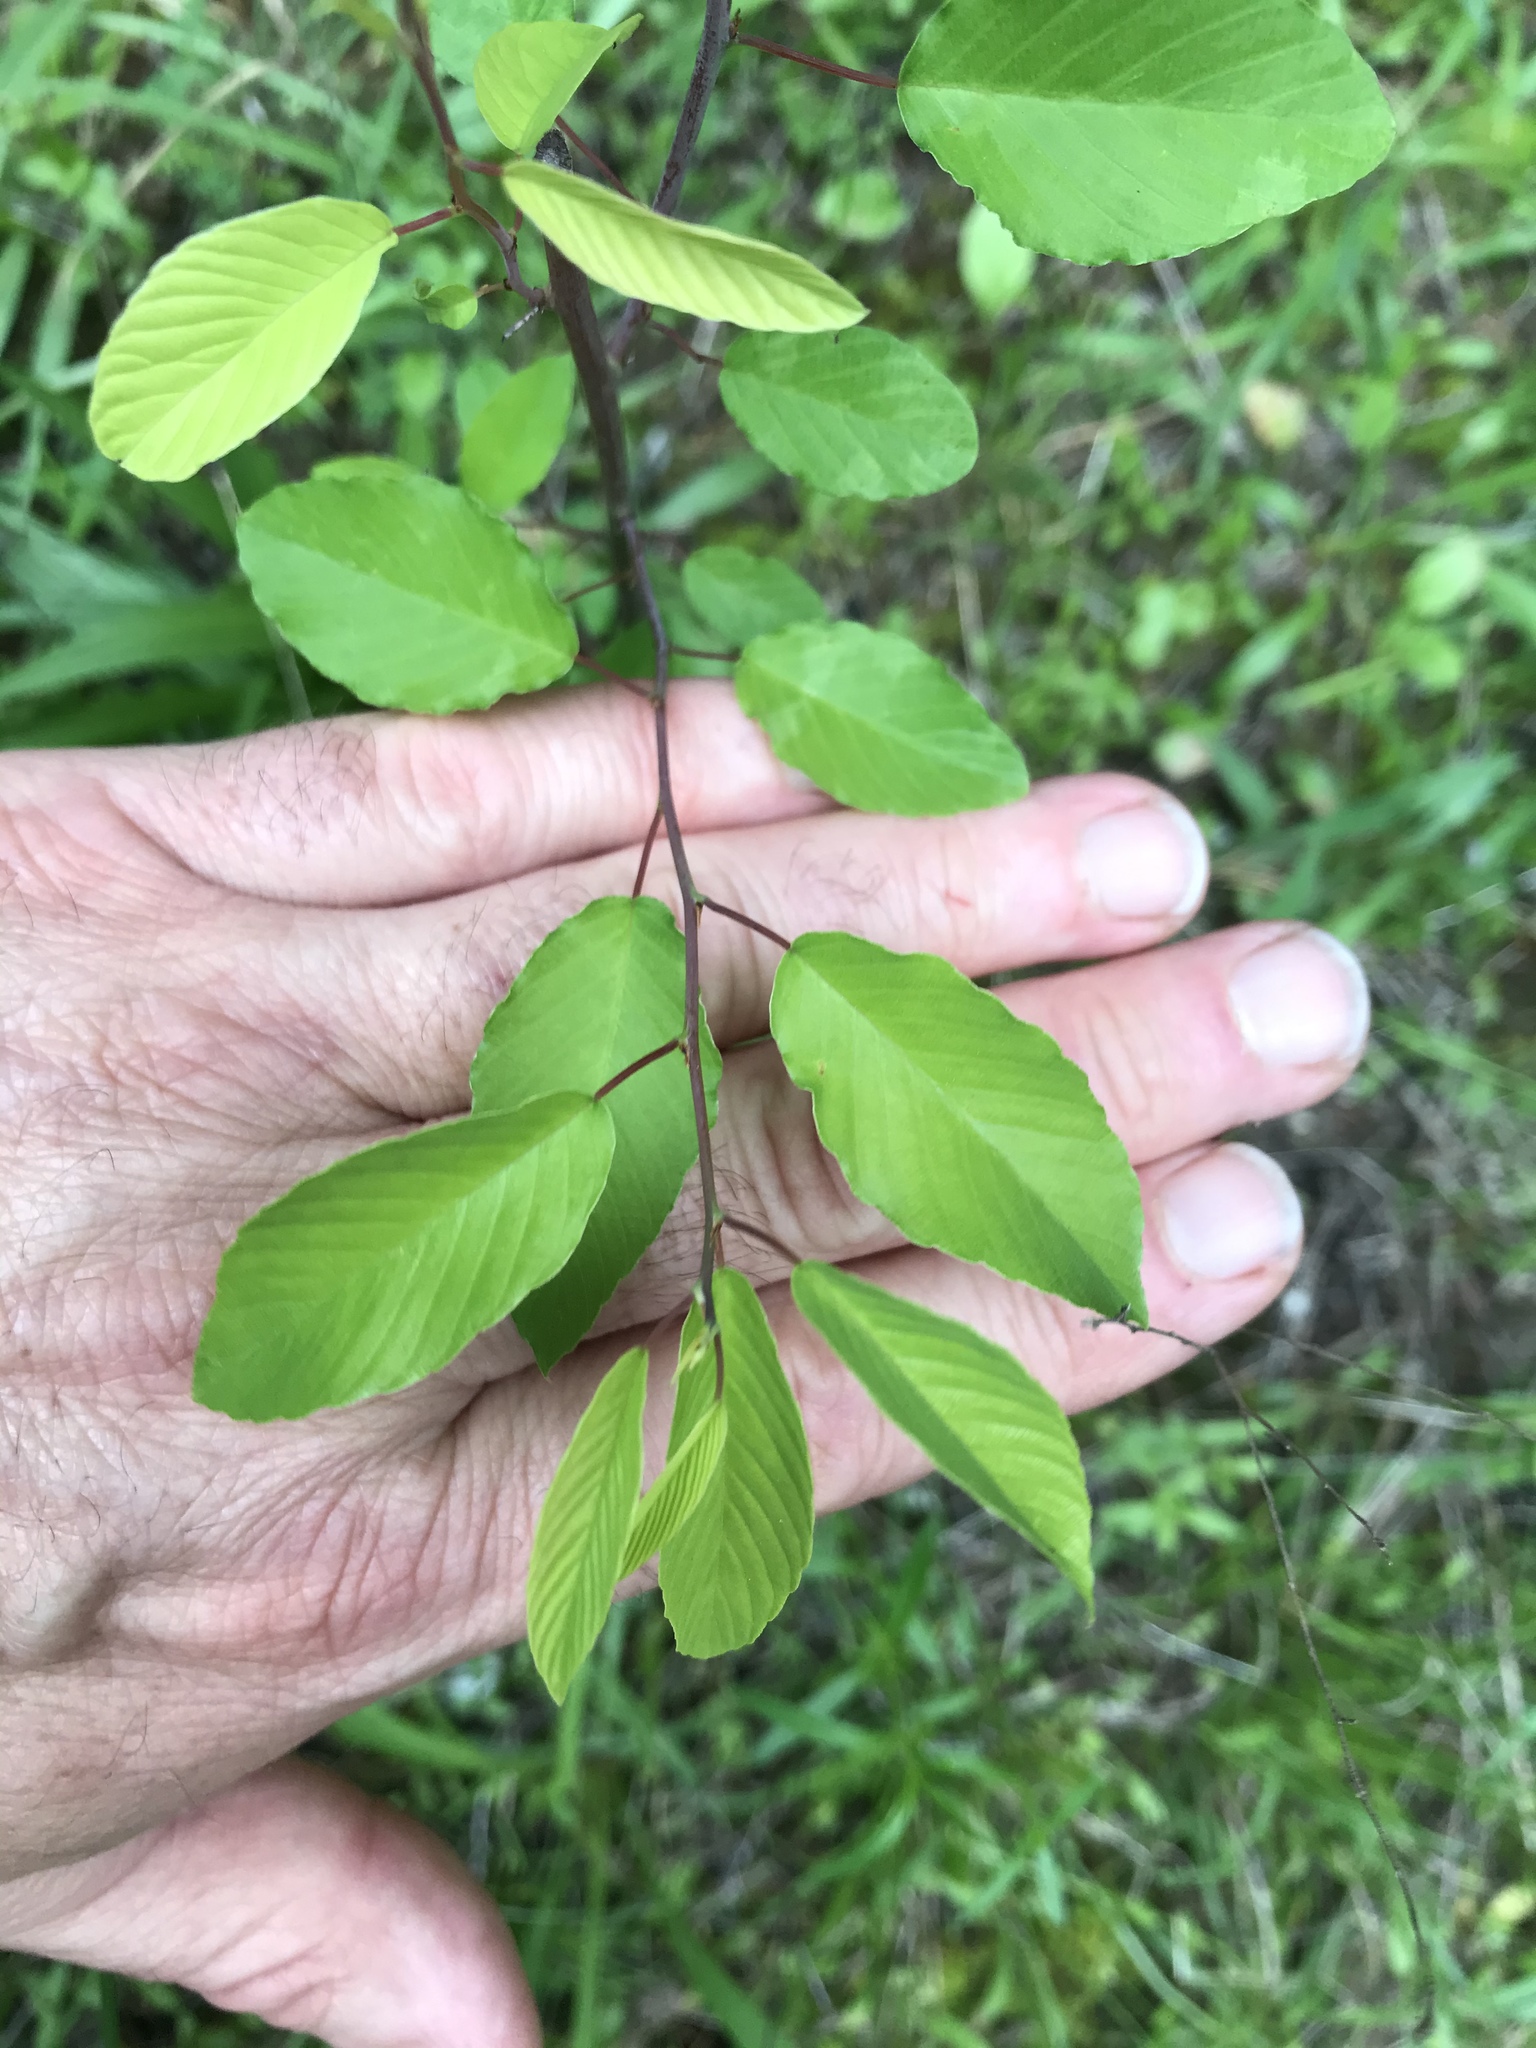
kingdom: Plantae
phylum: Tracheophyta
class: Magnoliopsida
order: Rosales
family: Rhamnaceae
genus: Berchemia
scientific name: Berchemia scandens
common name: Supplejack
